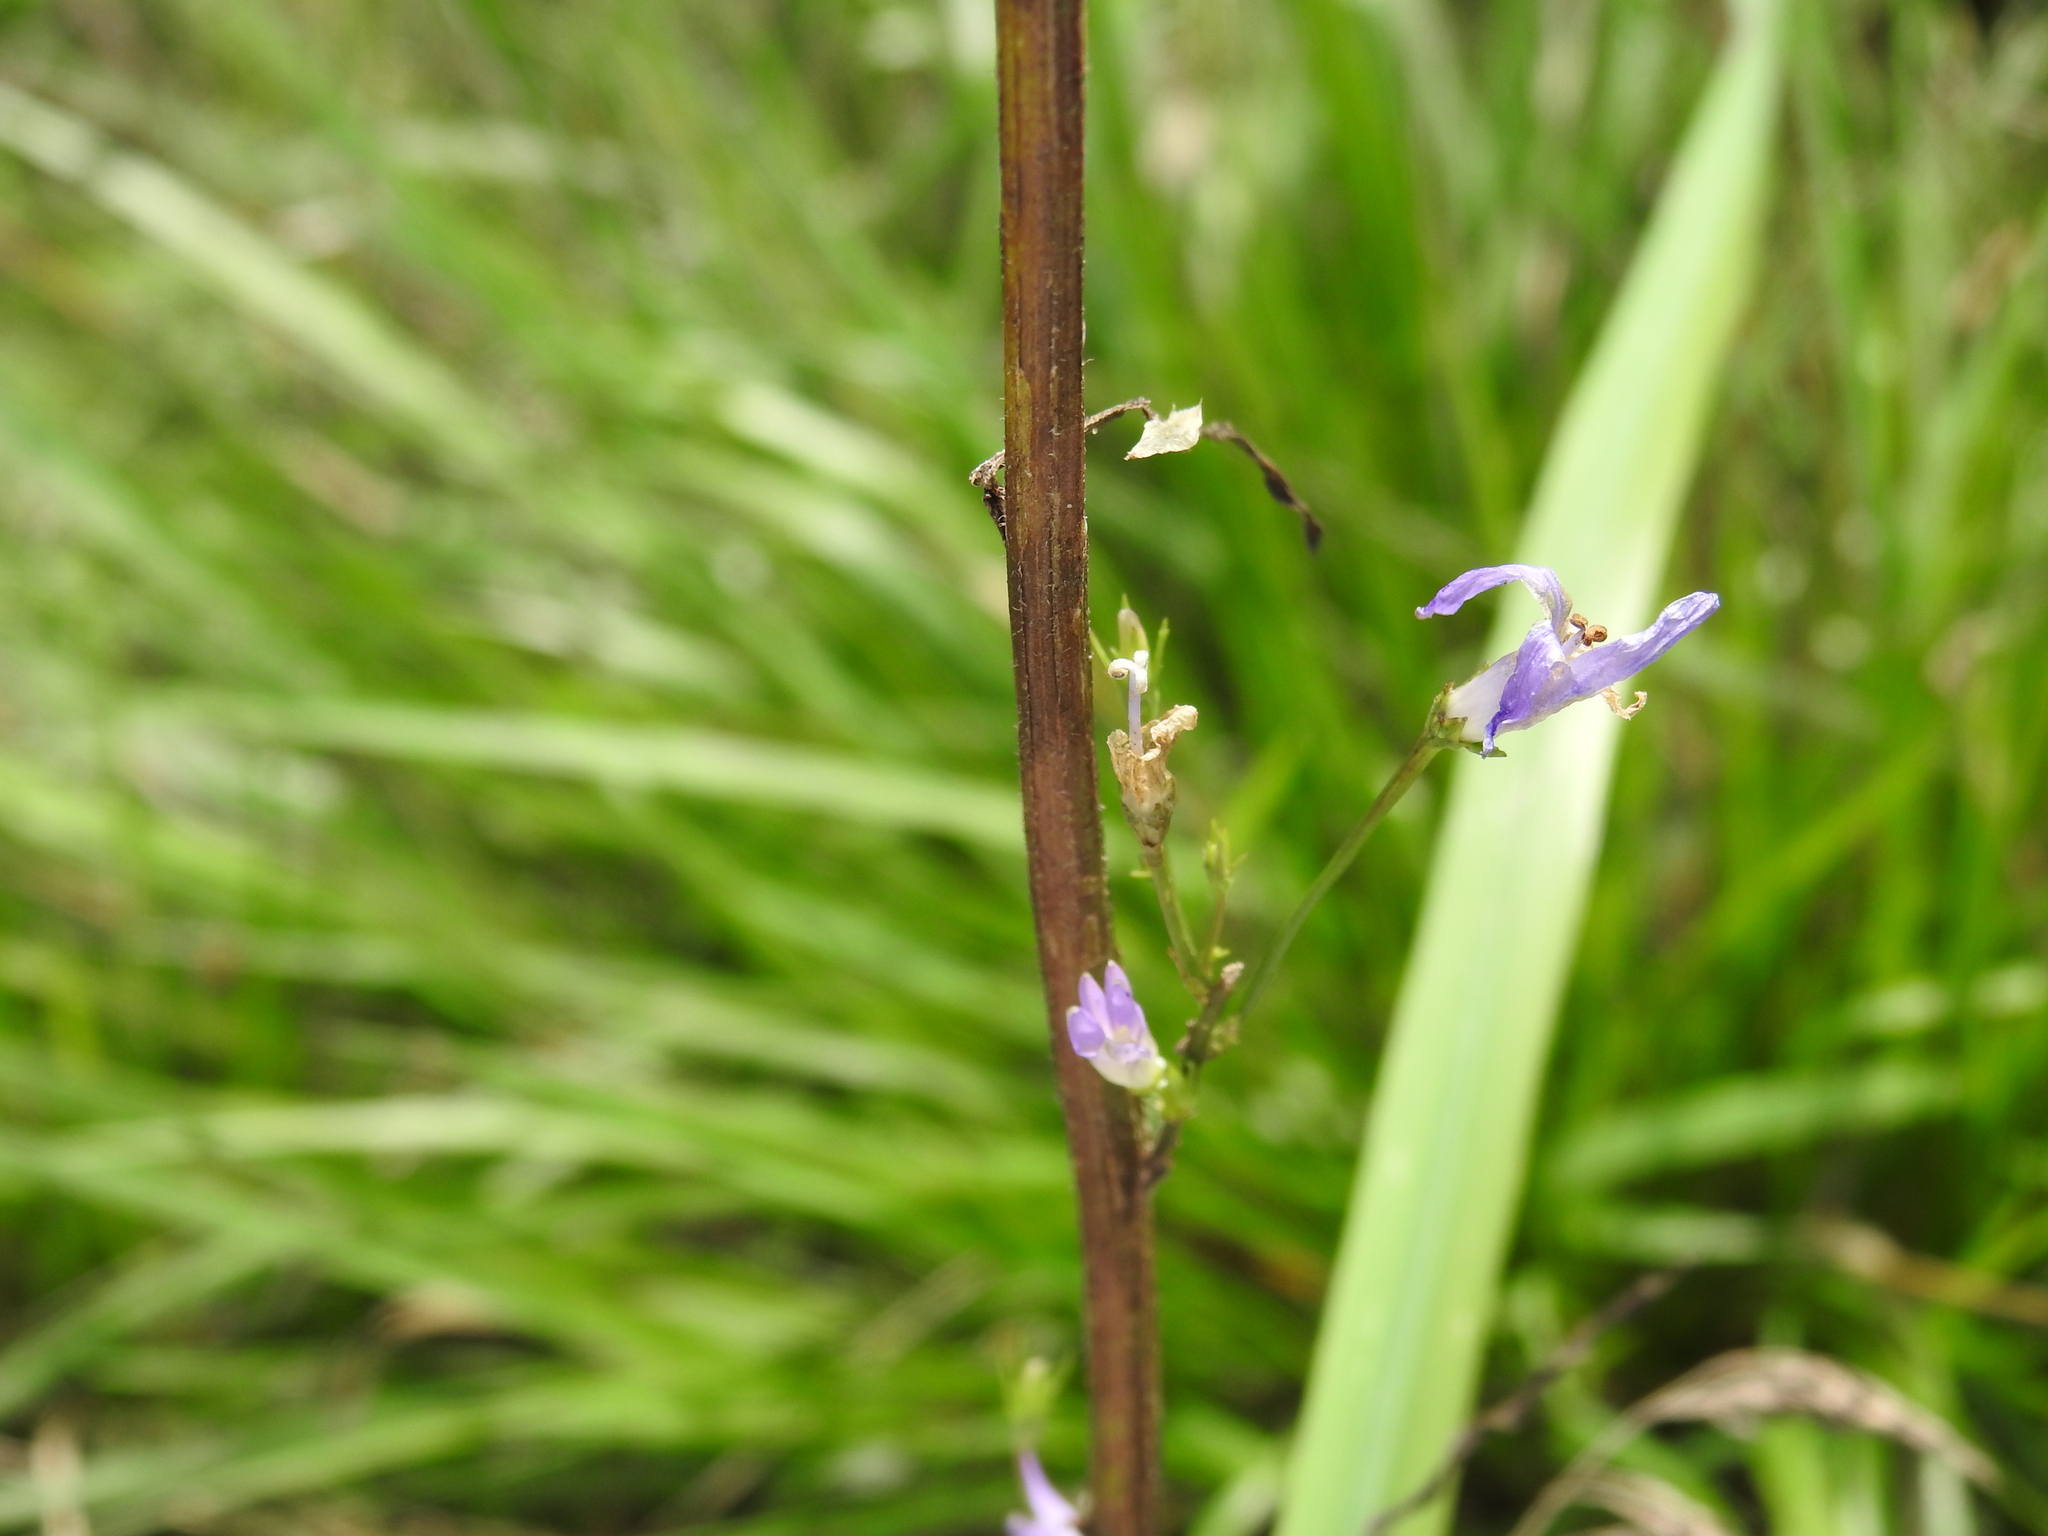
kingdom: Plantae
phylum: Tracheophyta
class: Magnoliopsida
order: Asterales
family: Campanulaceae
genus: Campanula
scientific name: Campanula rapunculus
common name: Rampion bellflower
